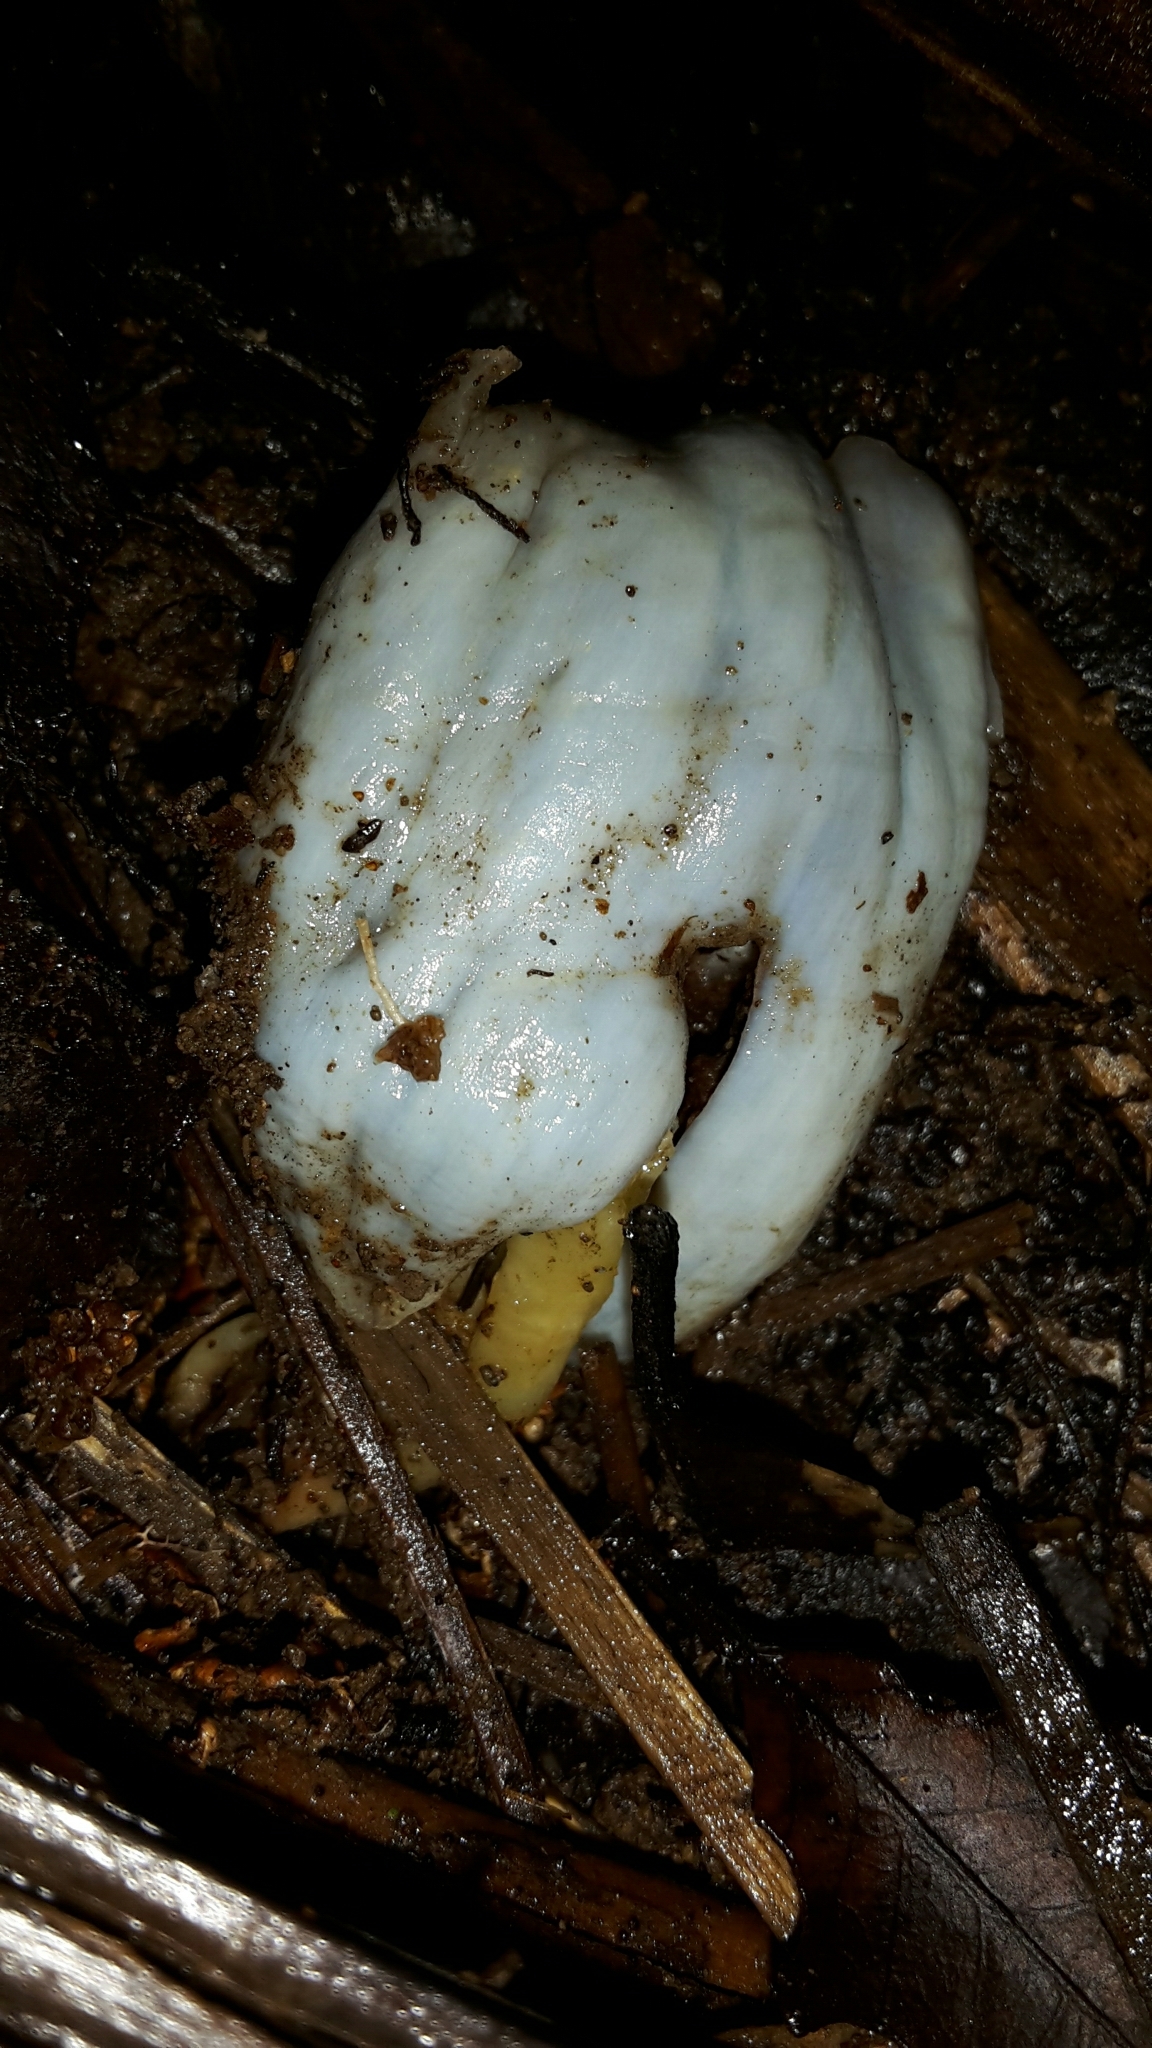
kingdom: Fungi
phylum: Basidiomycota
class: Agaricomycetes
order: Agaricales
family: Agaricaceae
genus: Clavogaster
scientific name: Clavogaster virescens
